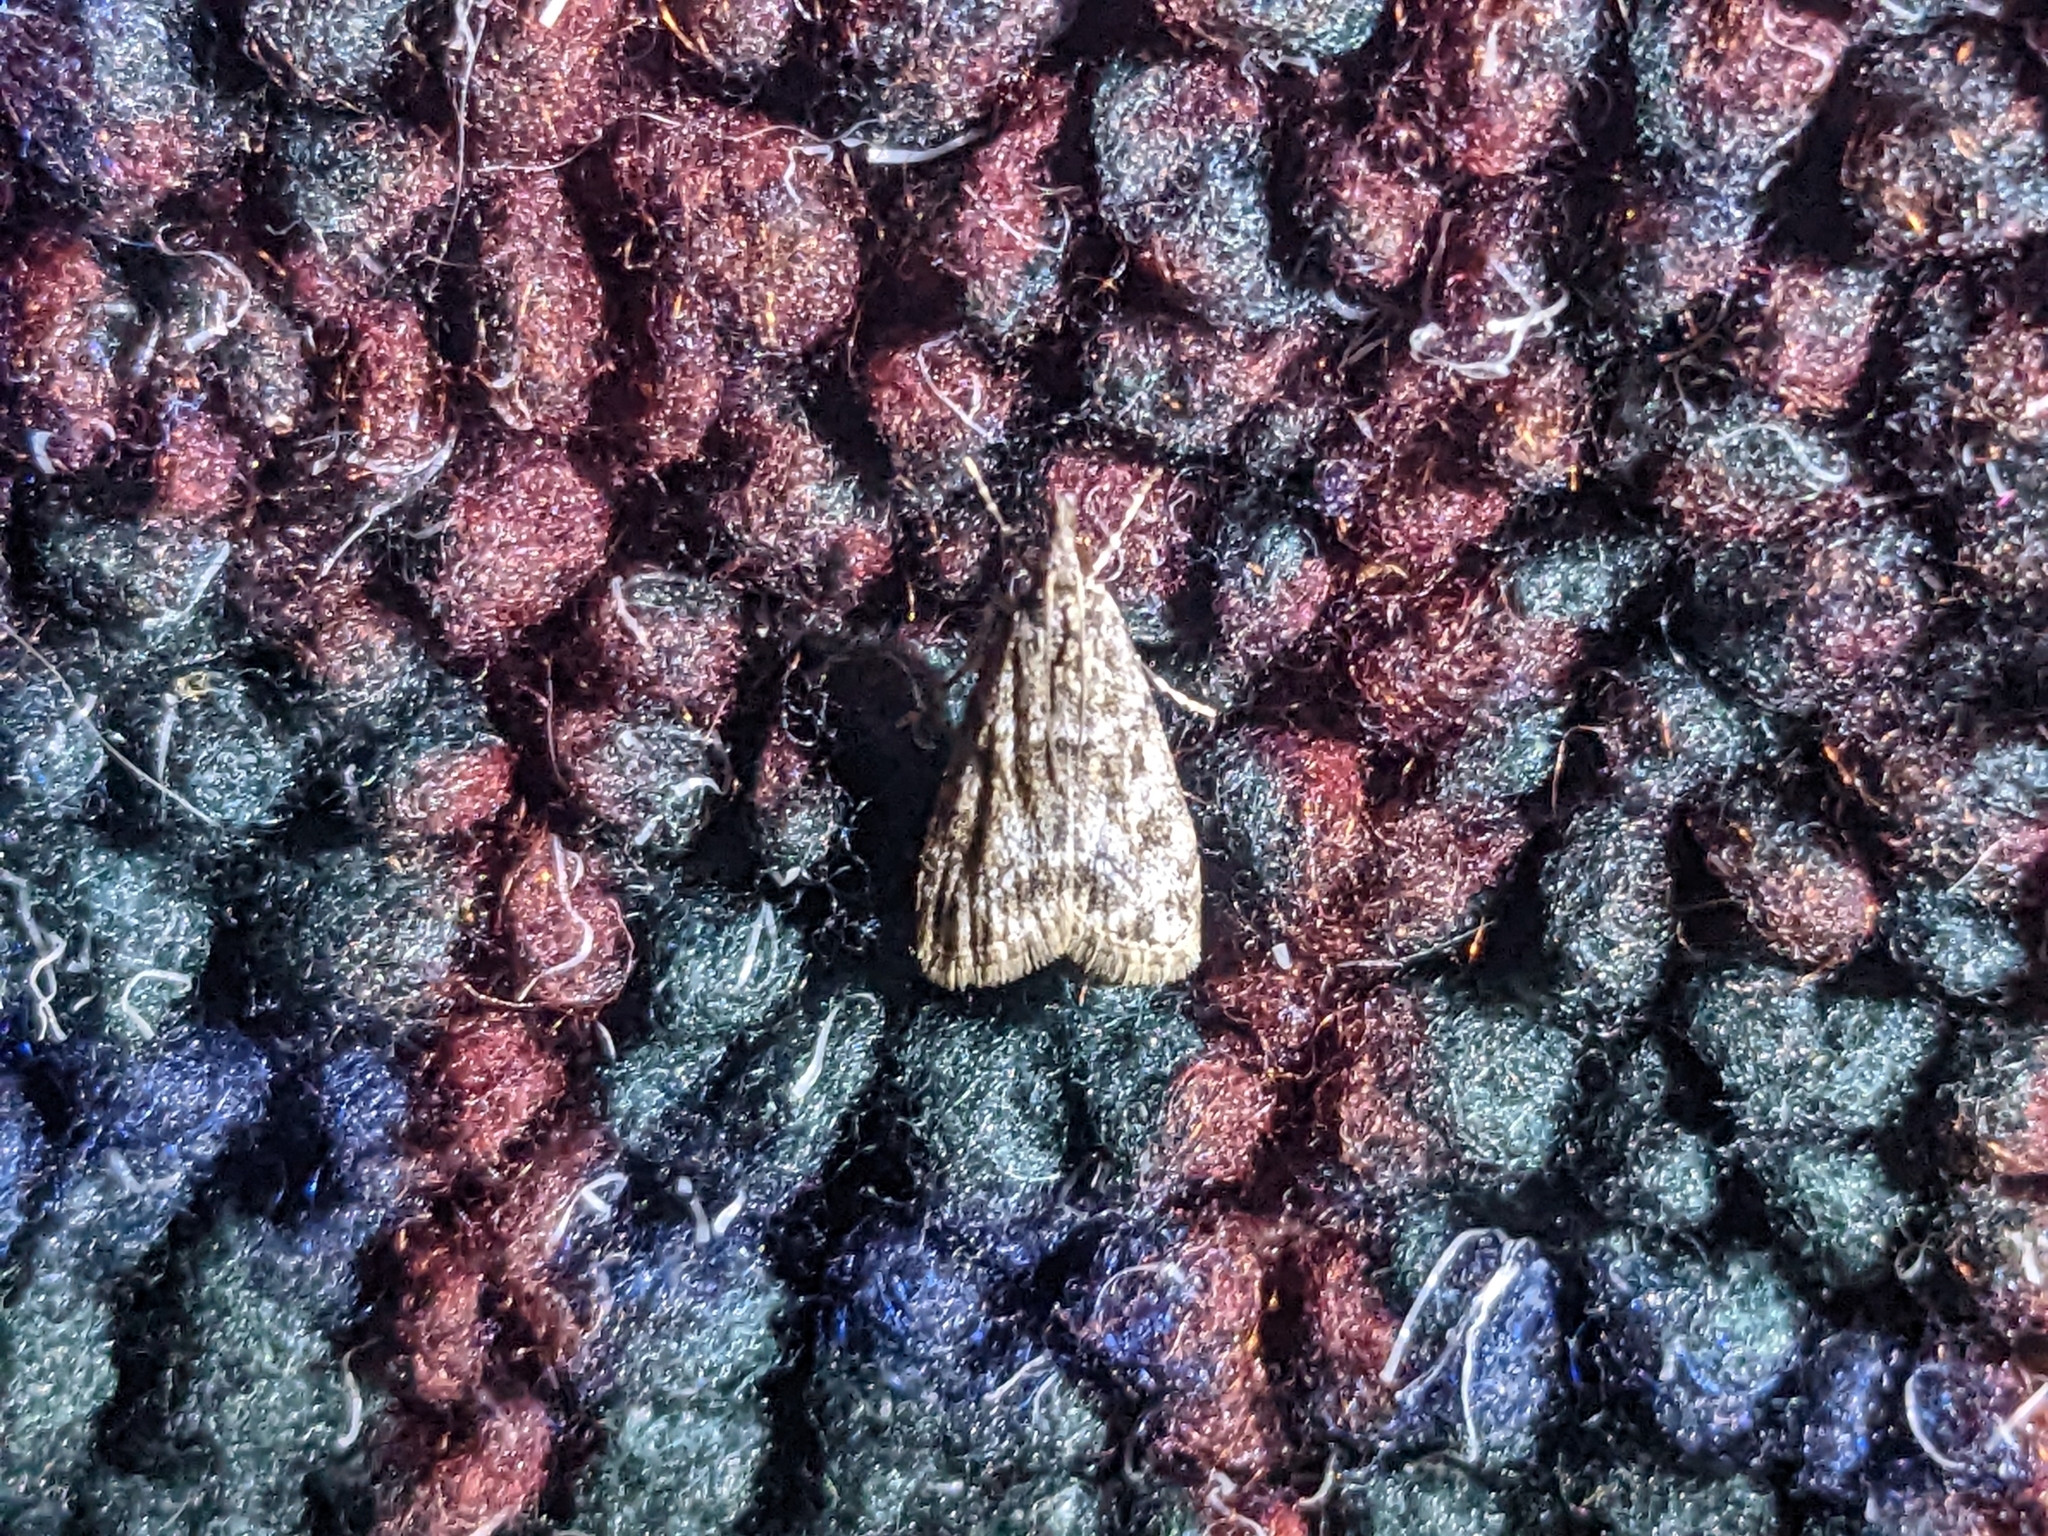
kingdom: Animalia
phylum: Arthropoda
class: Insecta
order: Lepidoptera
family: Crambidae
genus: Eudonia
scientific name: Eudonia heterosalis
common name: Mcdunnough's eudonia
